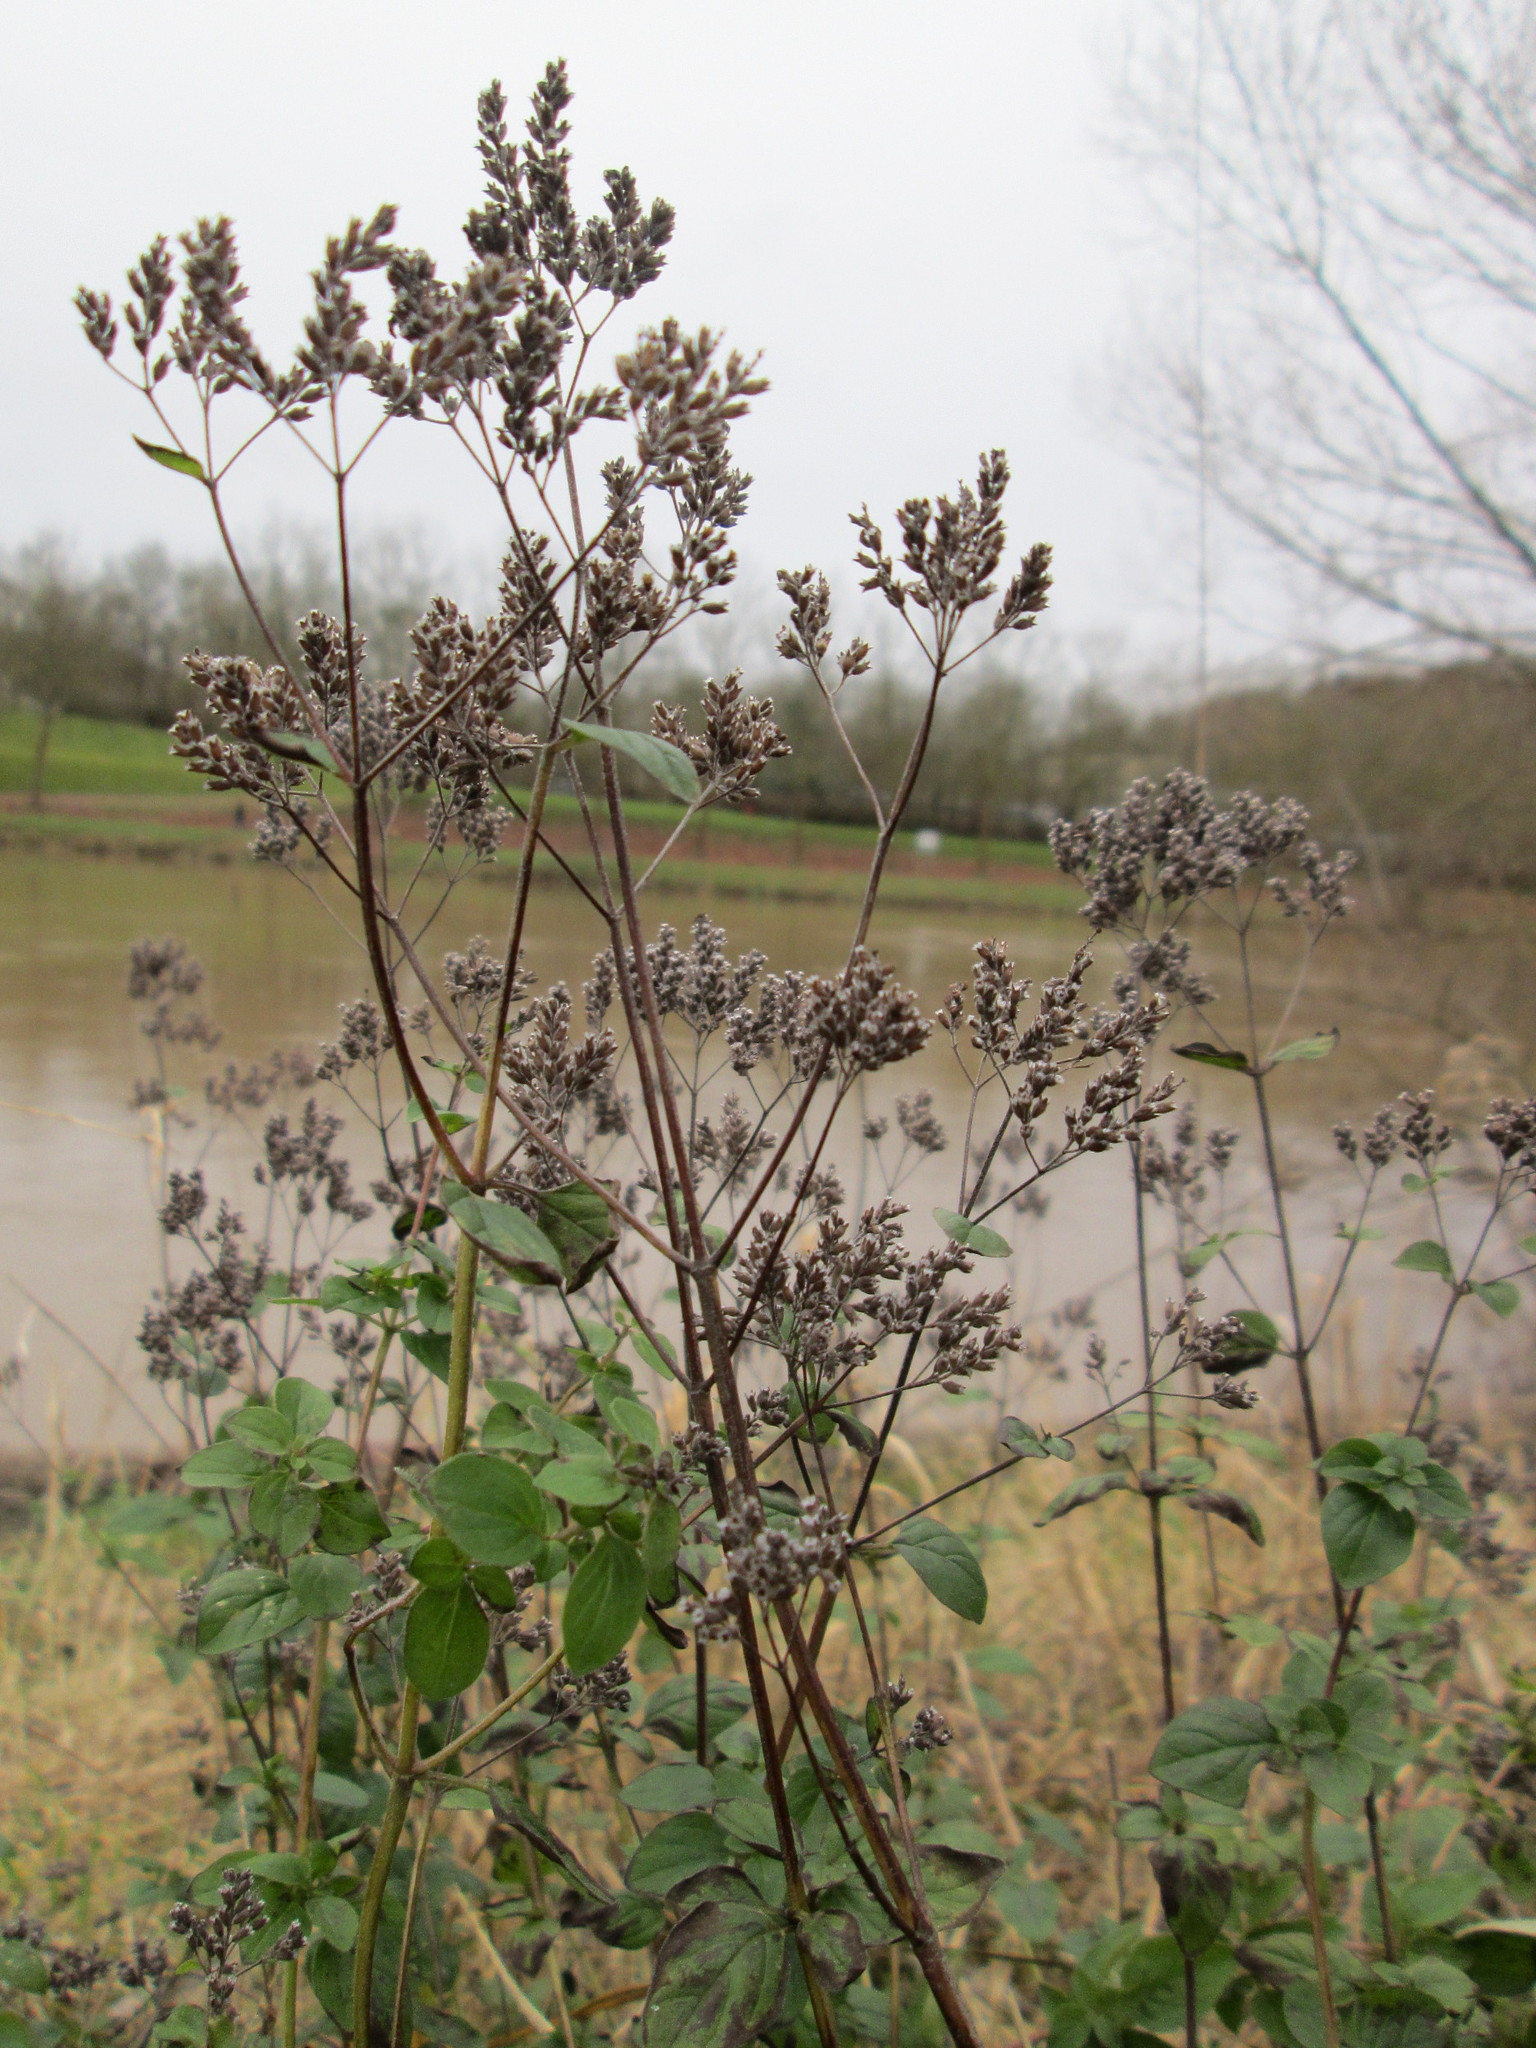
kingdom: Plantae
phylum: Tracheophyta
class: Magnoliopsida
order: Lamiales
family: Lamiaceae
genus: Origanum
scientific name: Origanum vulgare
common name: Wild marjoram
